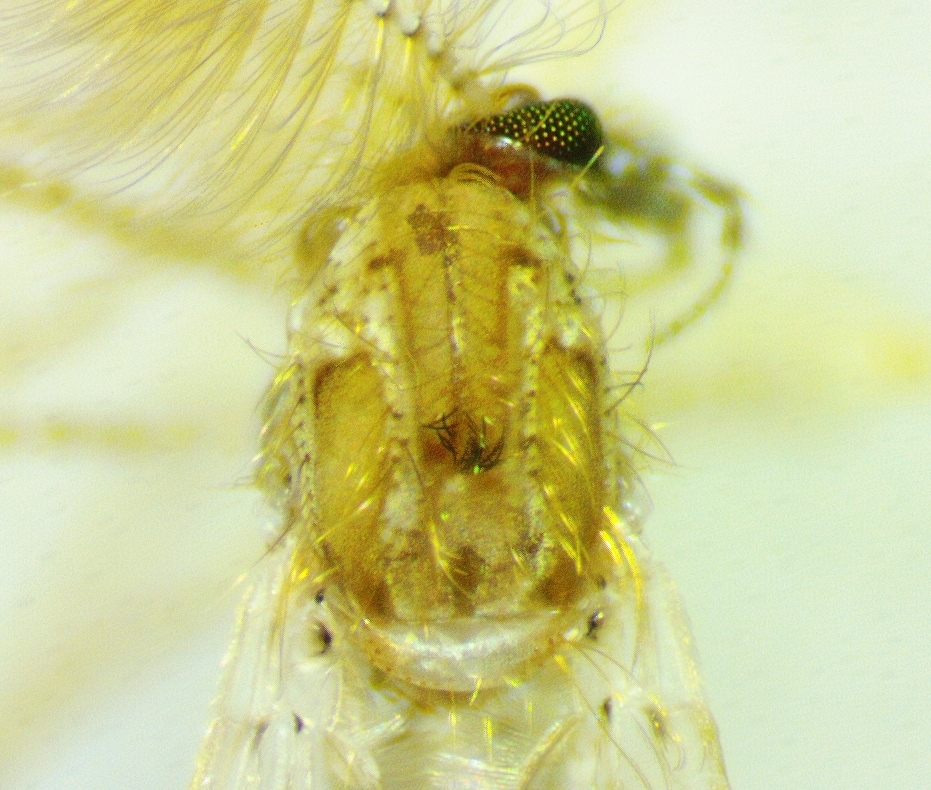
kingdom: Animalia
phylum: Arthropoda
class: Insecta
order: Diptera
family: Chaoboridae
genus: Chaoborus
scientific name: Chaoborus punctipennis
